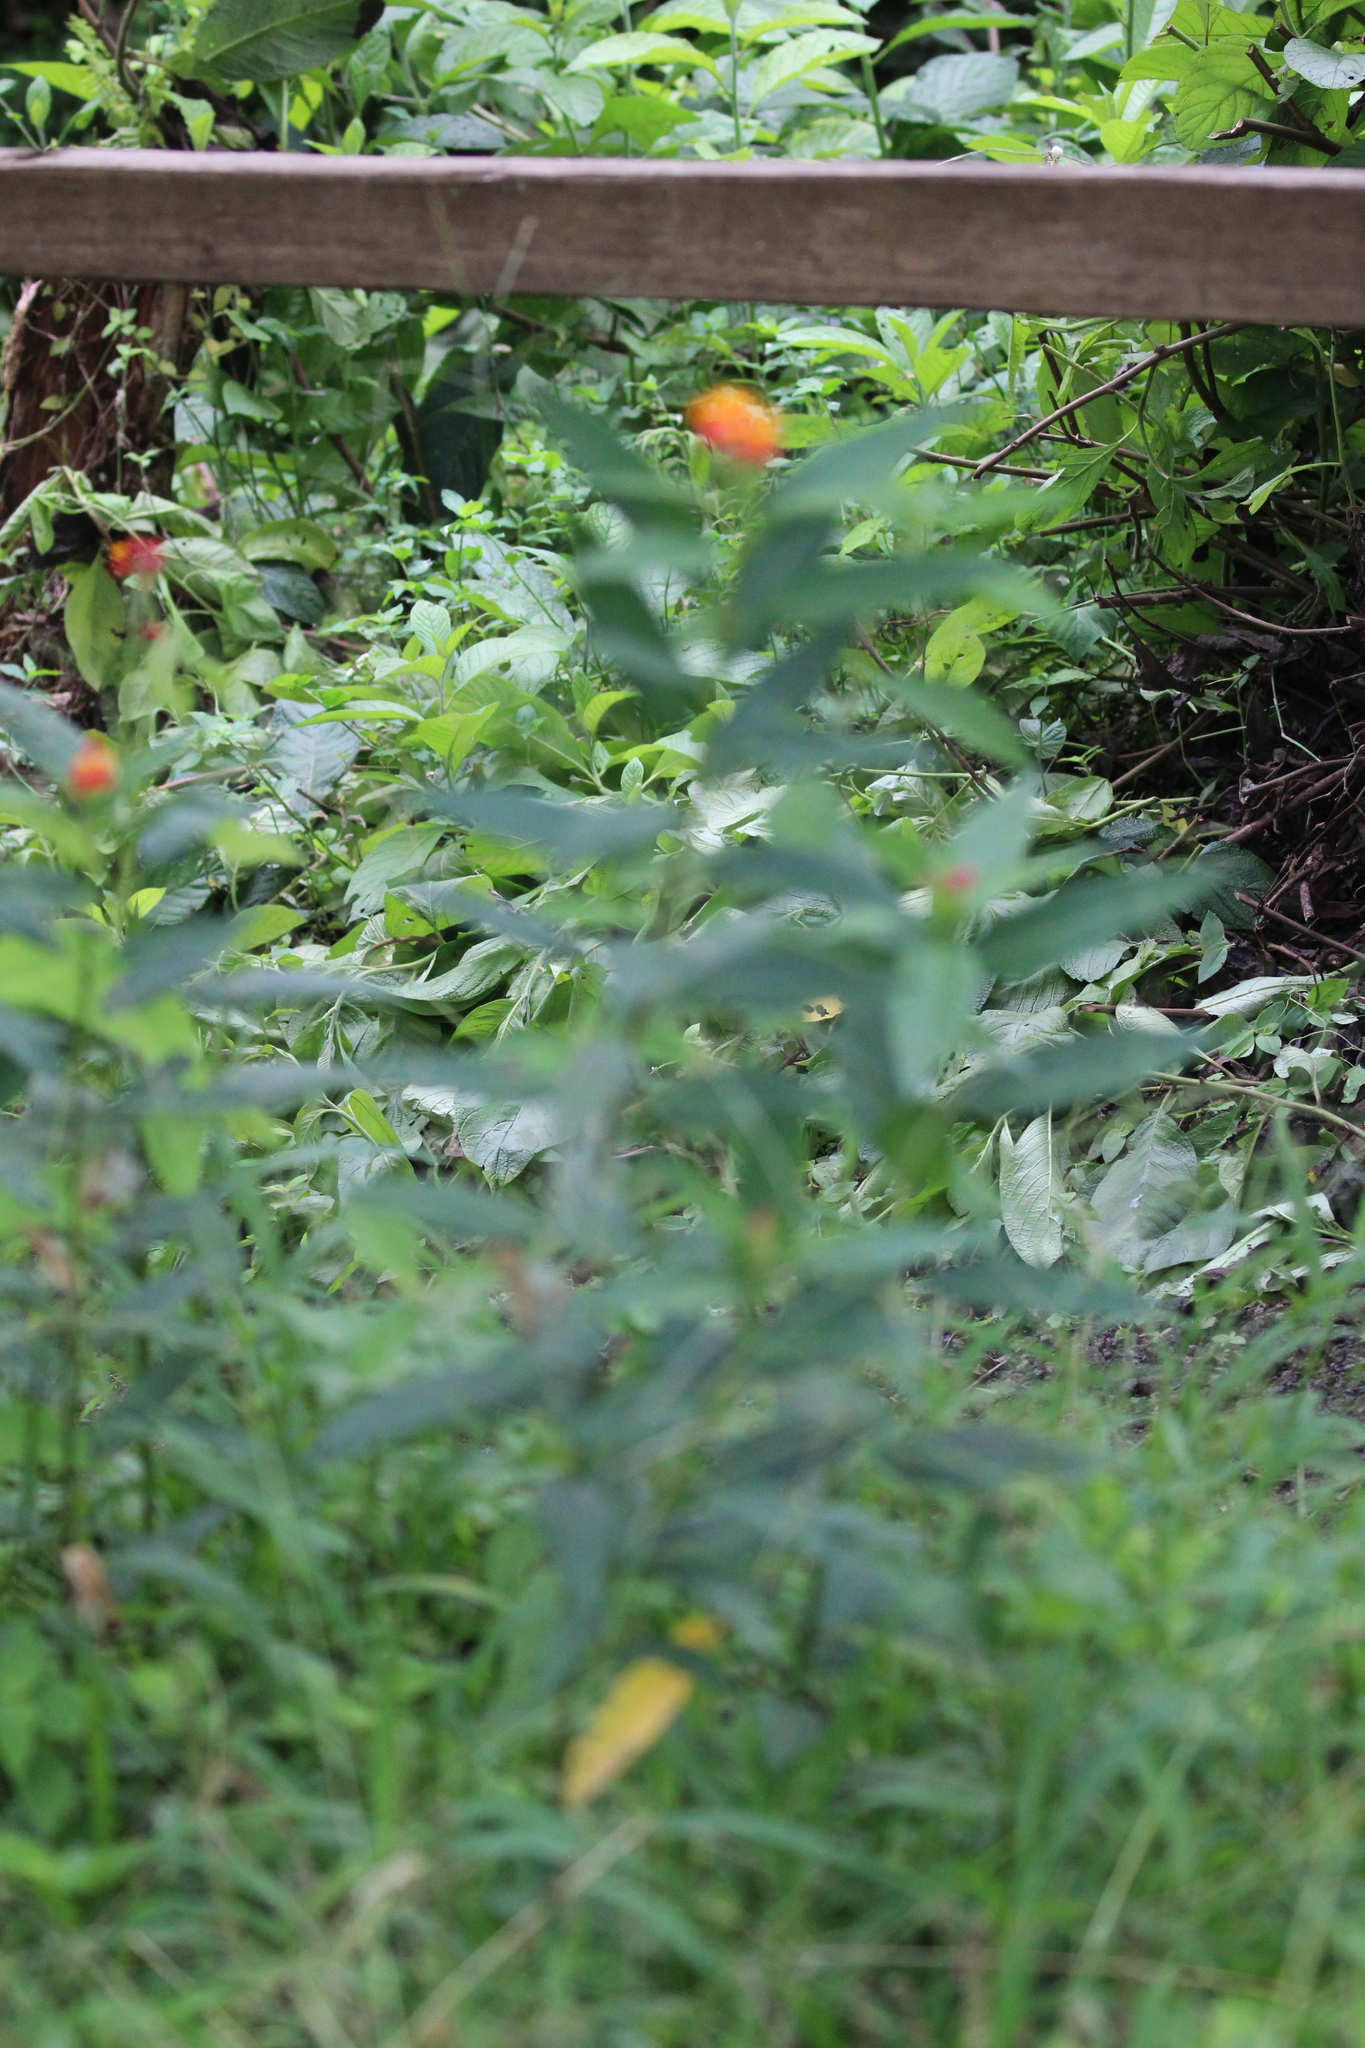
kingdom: Plantae
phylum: Tracheophyta
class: Magnoliopsida
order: Gentianales
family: Apocynaceae
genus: Asclepias
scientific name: Asclepias curassavica
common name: Bloodflower
